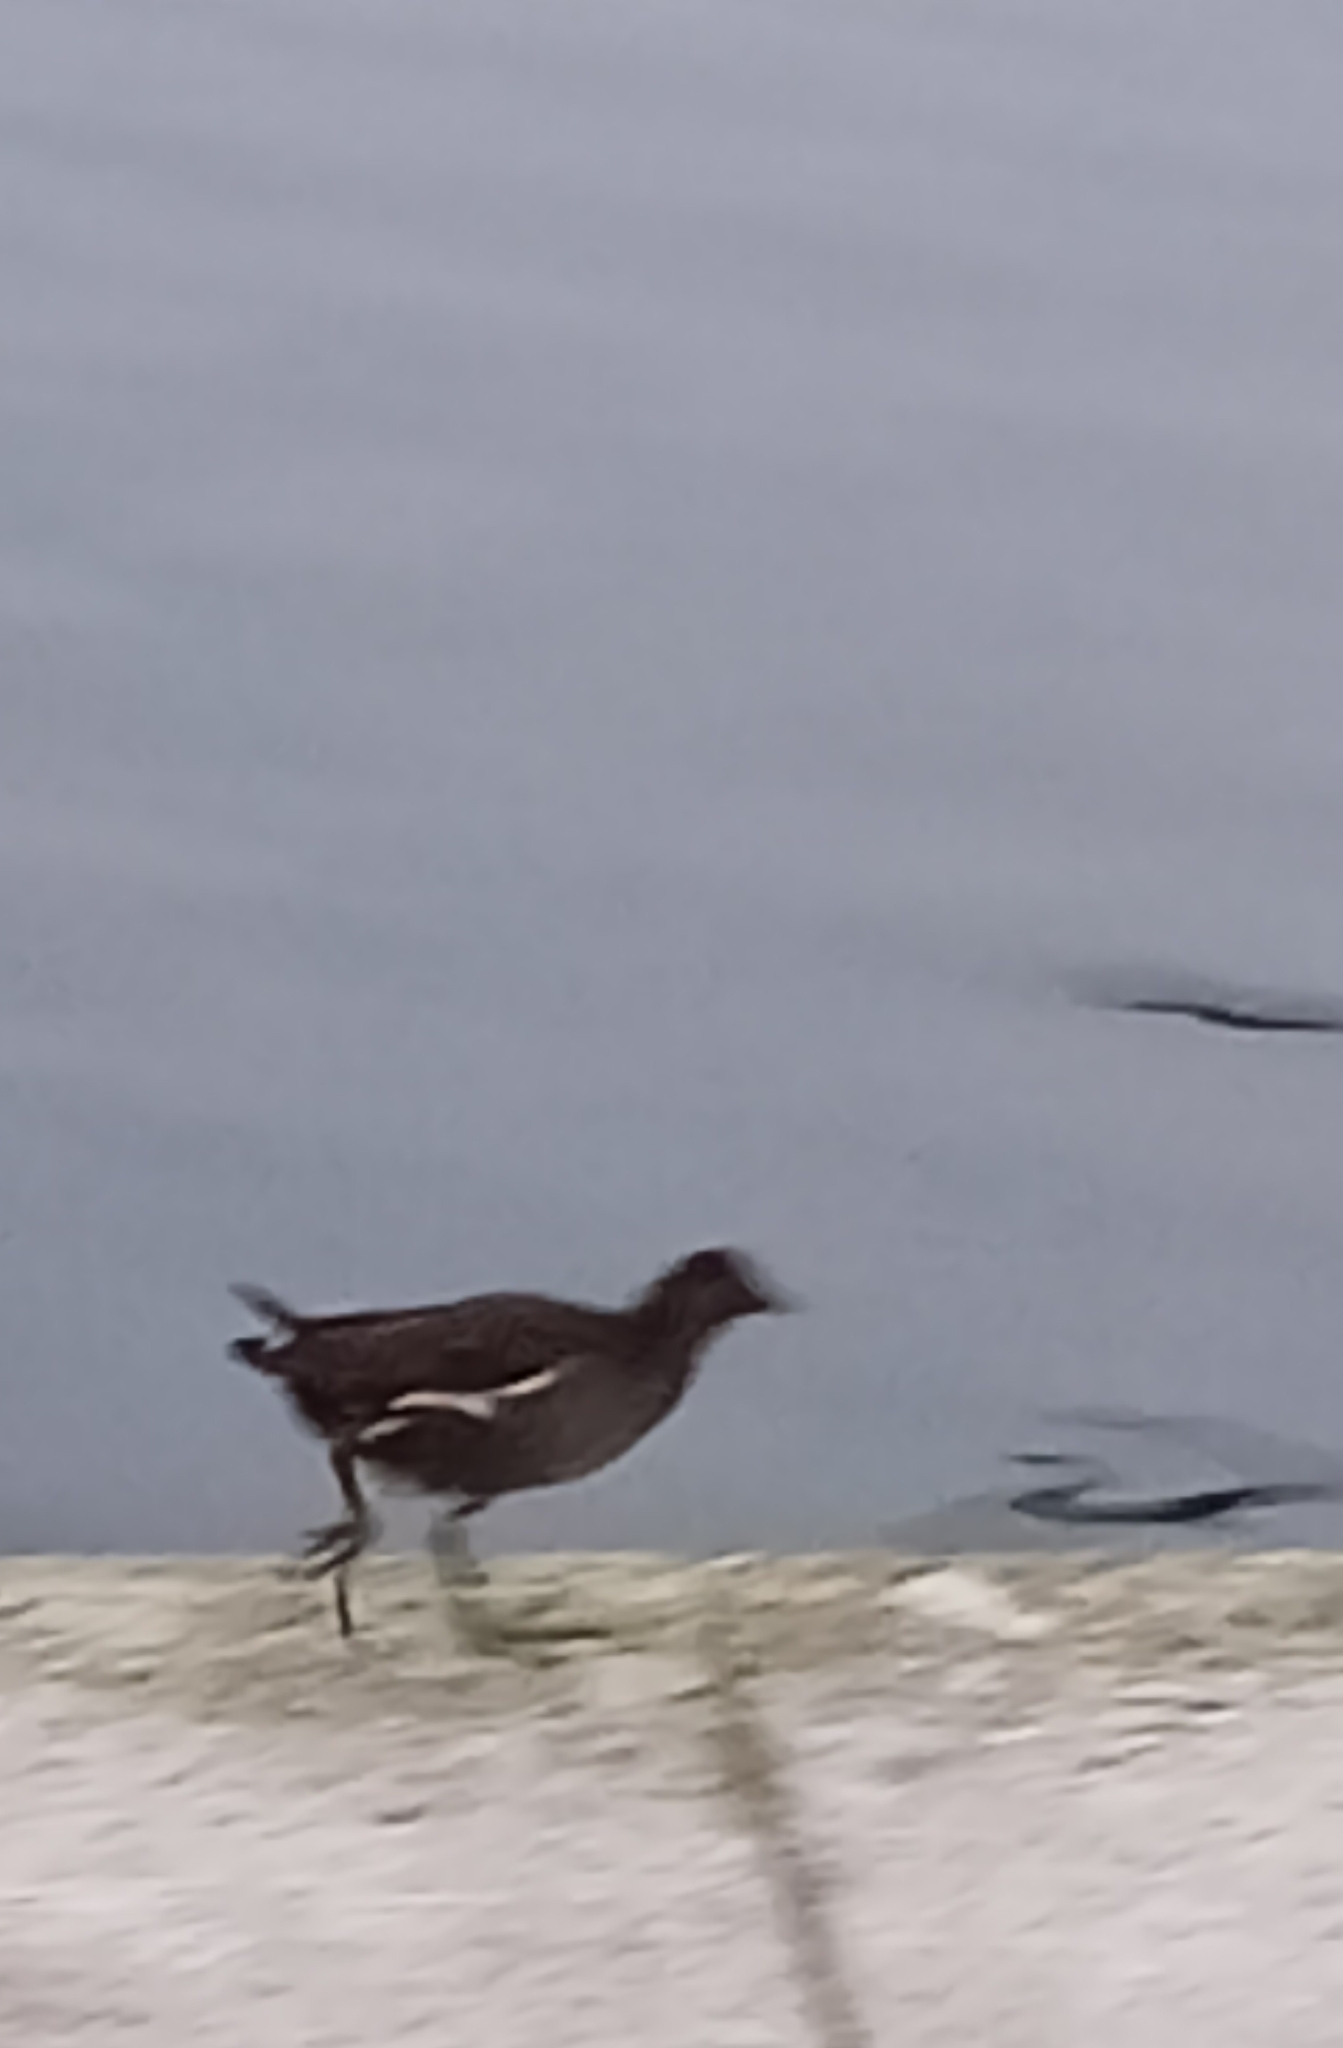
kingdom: Animalia
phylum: Chordata
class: Aves
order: Gruiformes
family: Rallidae
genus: Gallinula
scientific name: Gallinula chloropus
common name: Common moorhen
